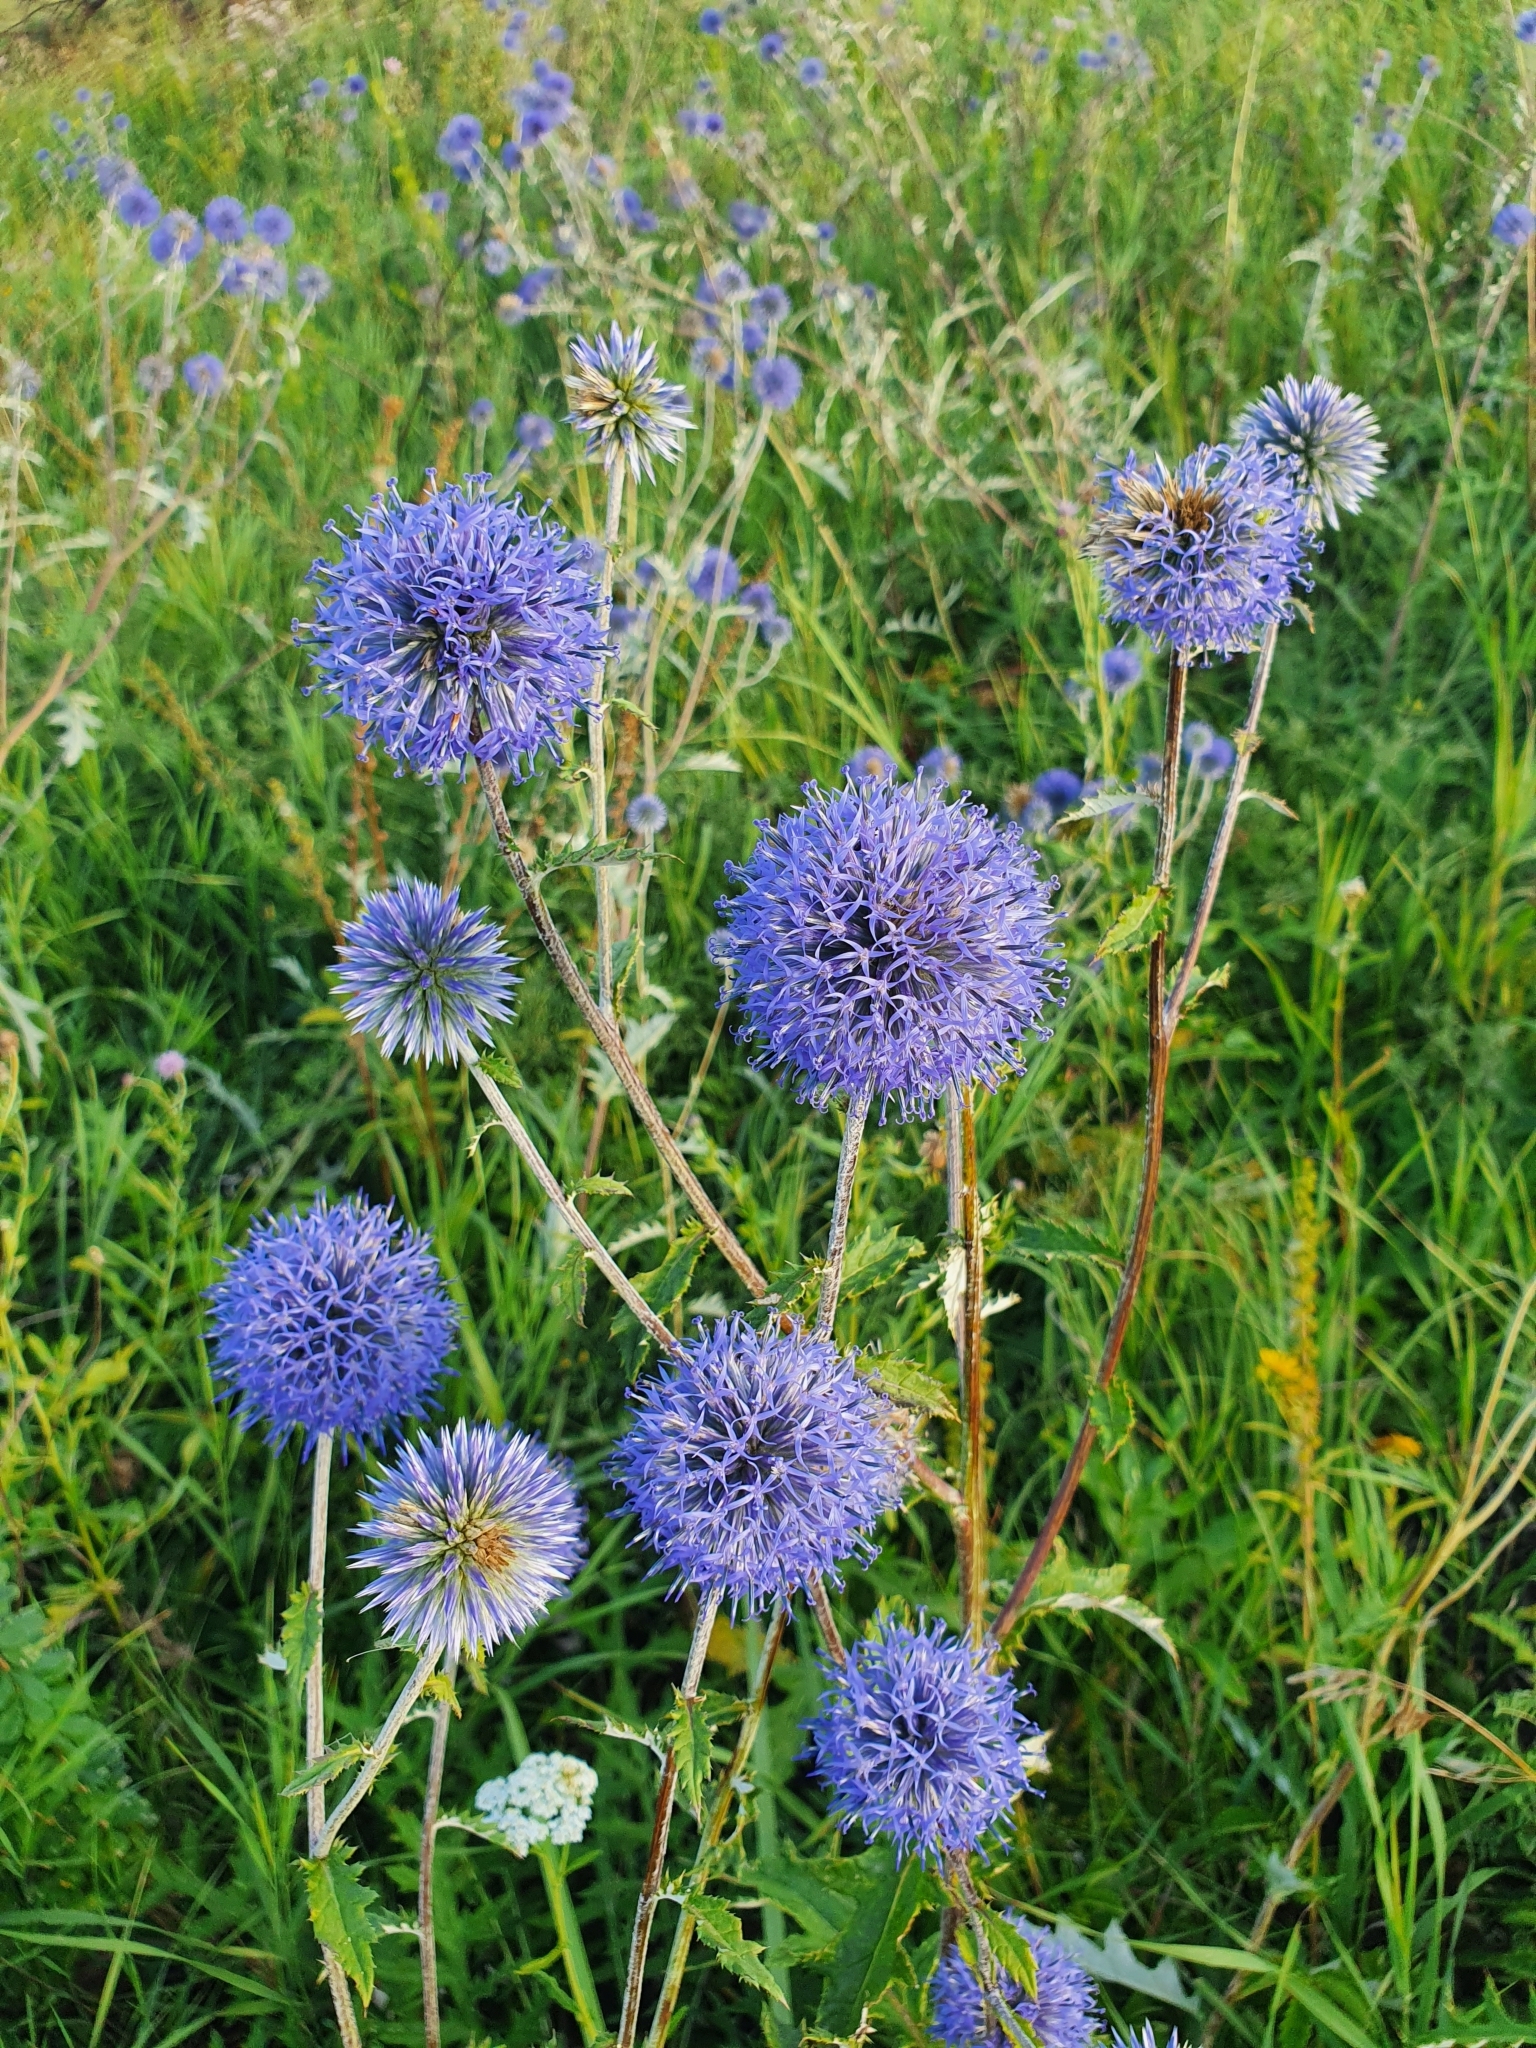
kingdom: Plantae
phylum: Tracheophyta
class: Magnoliopsida
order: Asterales
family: Asteraceae
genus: Echinops
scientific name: Echinops ritro
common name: Globe thistle
